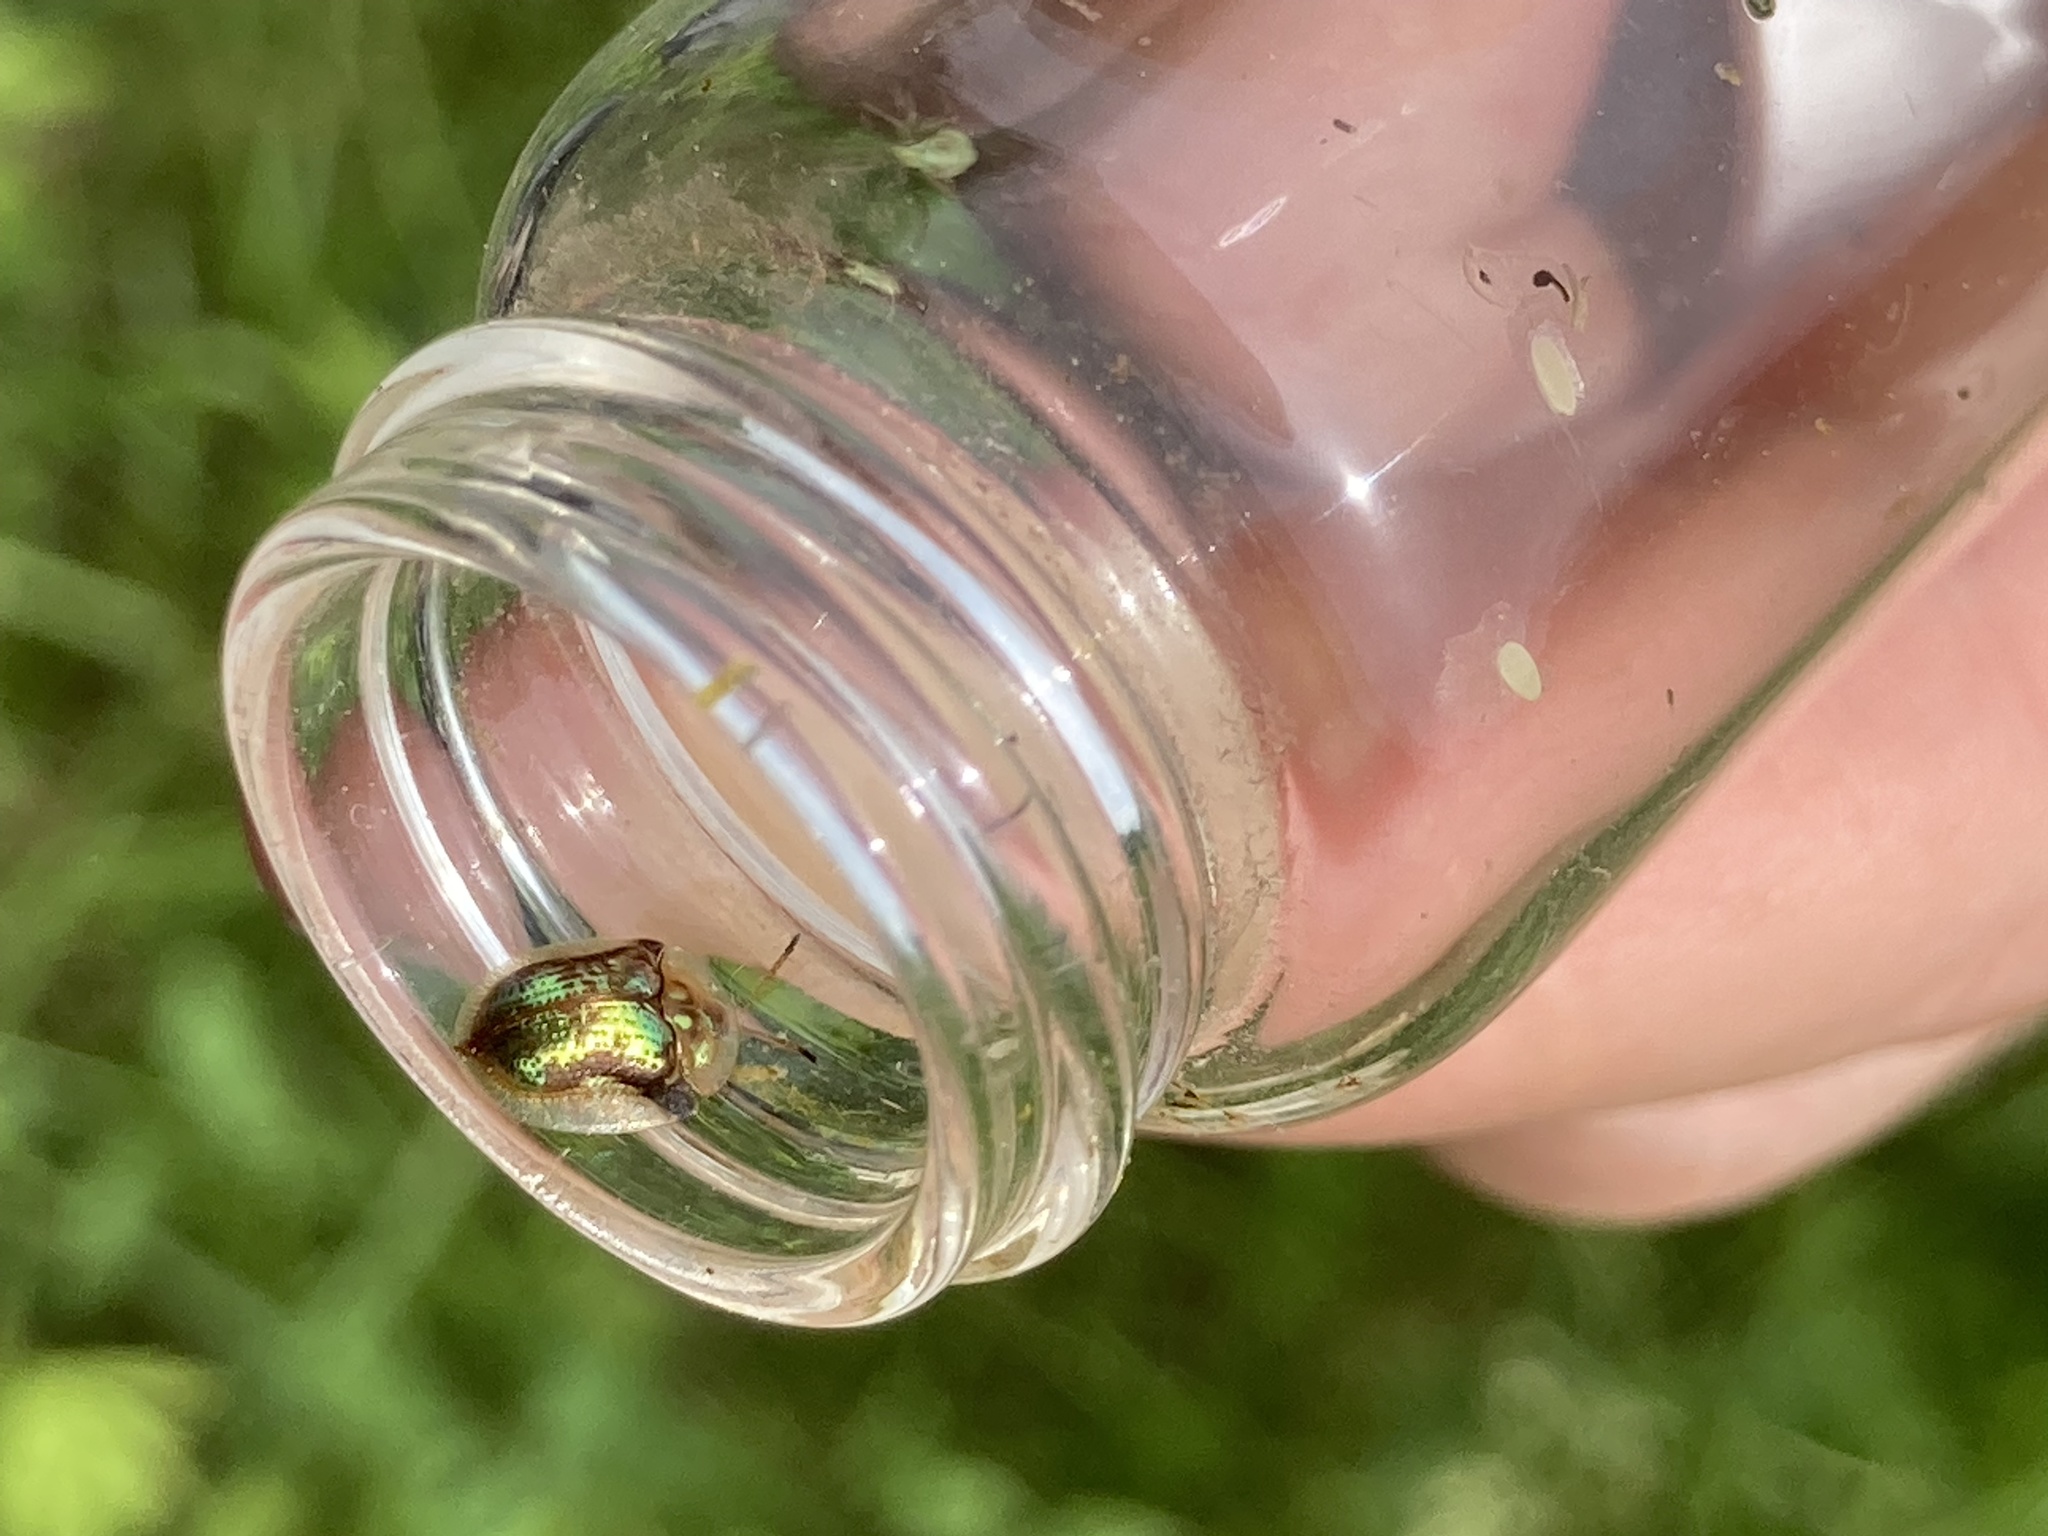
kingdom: Animalia
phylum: Arthropoda
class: Insecta
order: Coleoptera
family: Chrysomelidae
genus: Deloyala
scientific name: Deloyala guttata
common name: Mottled tortoise beetle
